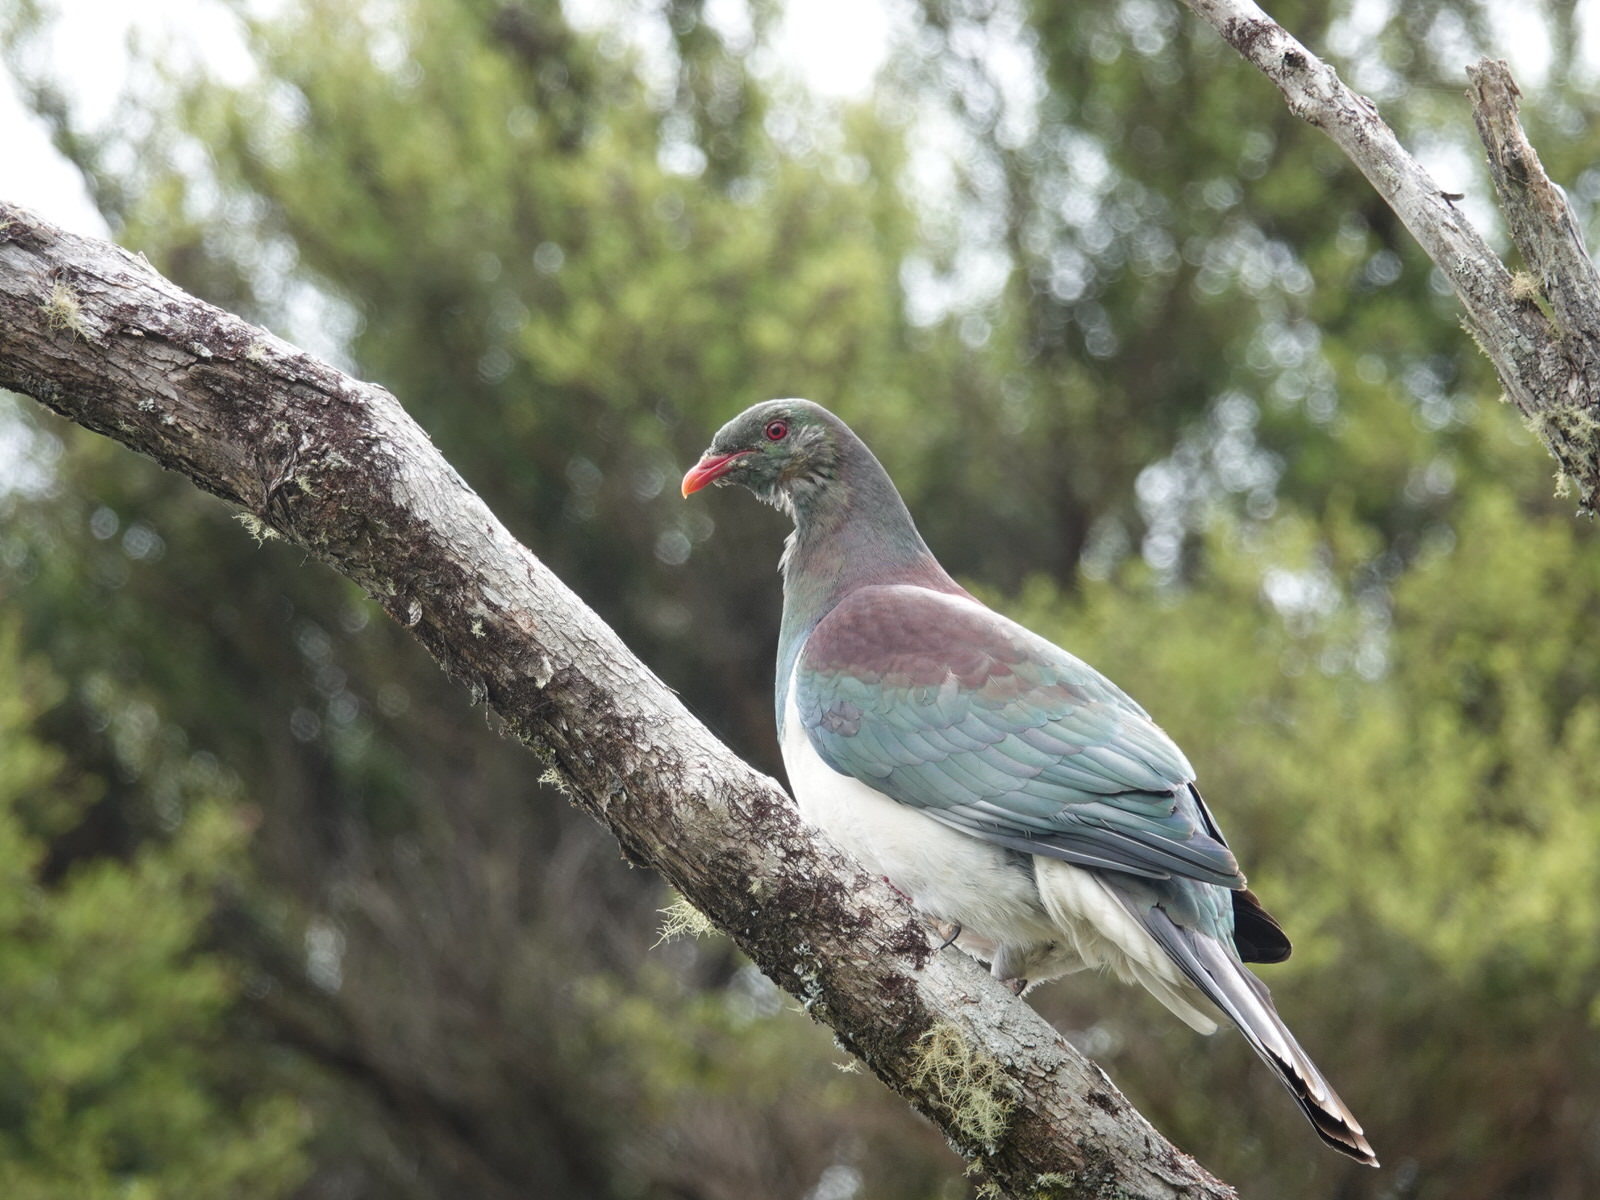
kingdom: Animalia
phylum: Chordata
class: Aves
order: Columbiformes
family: Columbidae
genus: Hemiphaga
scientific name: Hemiphaga novaeseelandiae
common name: New zealand pigeon
